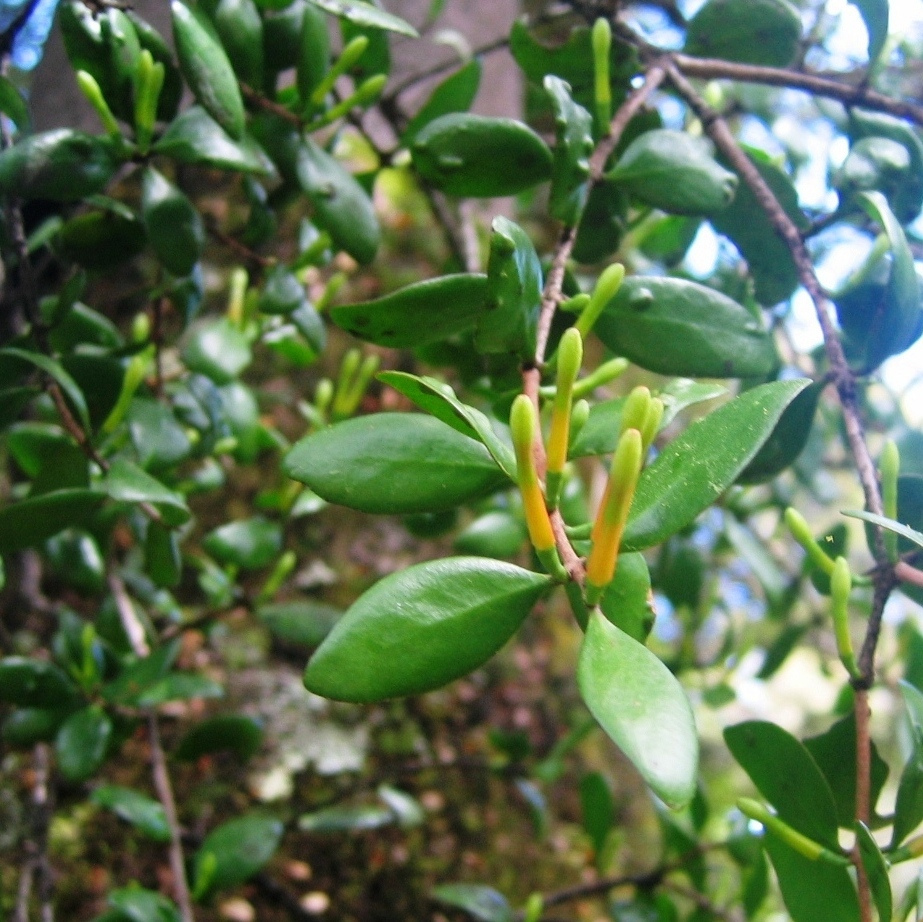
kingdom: Plantae
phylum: Tracheophyta
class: Magnoliopsida
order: Santalales
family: Loranthaceae
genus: Peraxilla
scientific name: Peraxilla tetrapetala
